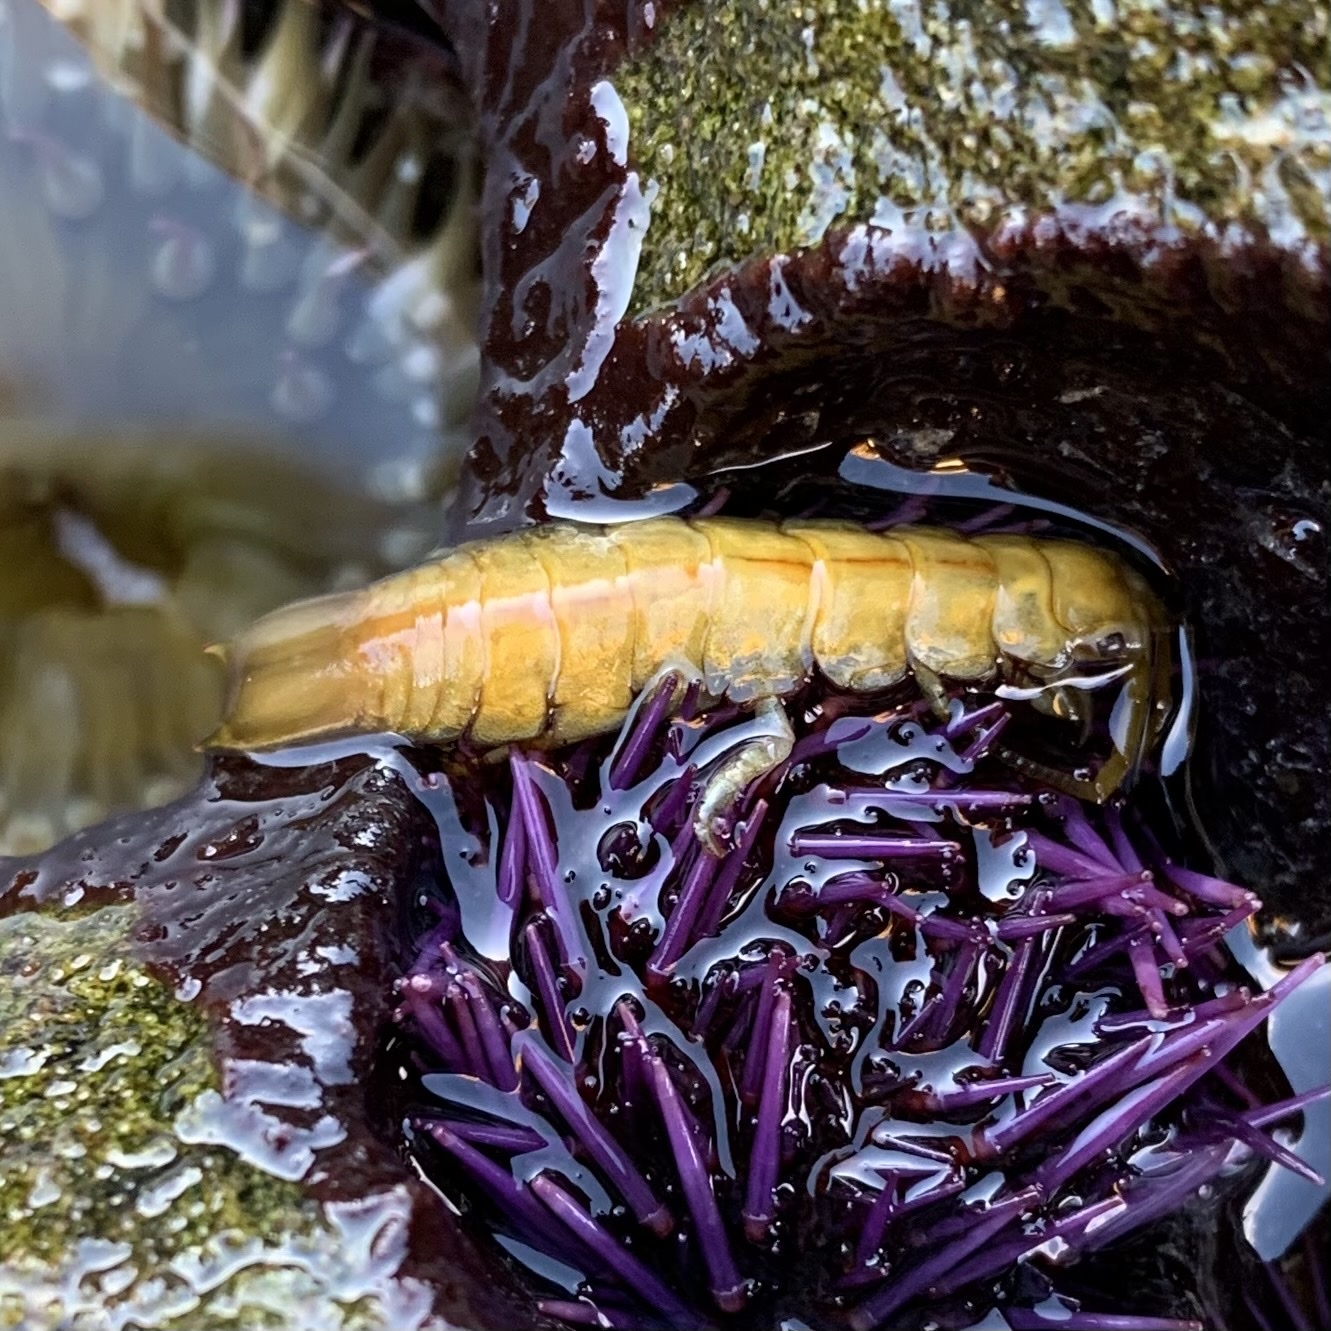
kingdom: Animalia
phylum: Arthropoda
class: Malacostraca
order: Isopoda
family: Idoteidae
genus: Pentidotea
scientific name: Pentidotea resecata
